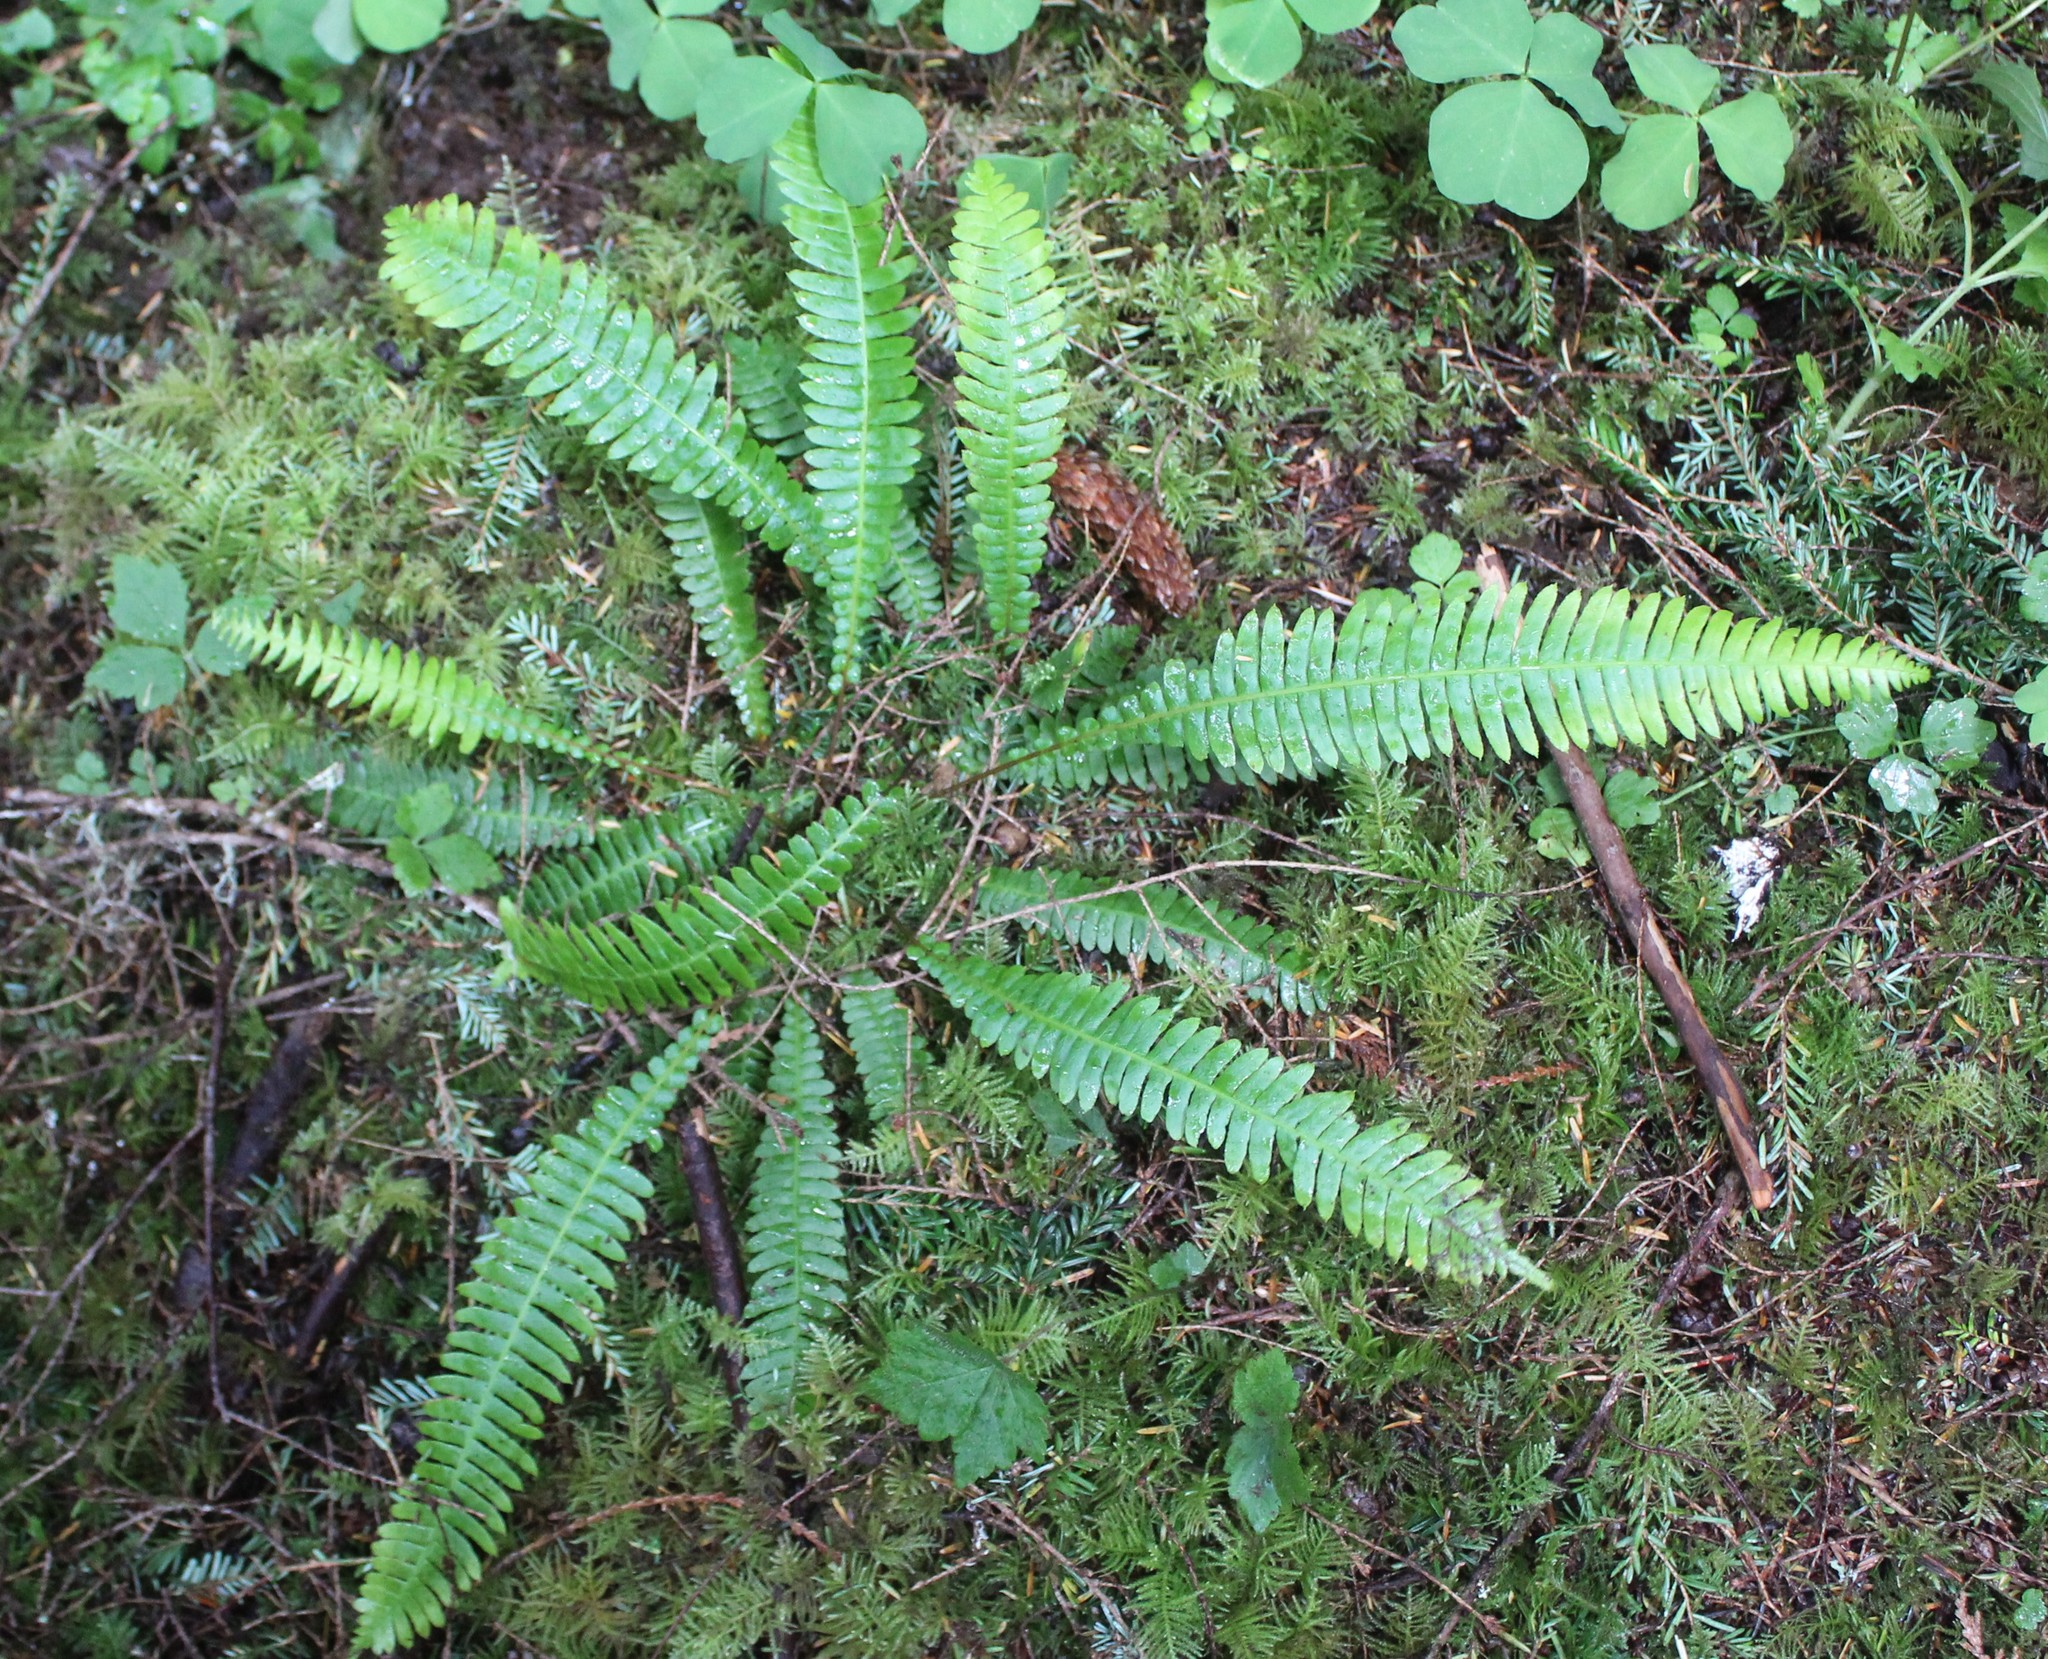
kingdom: Plantae
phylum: Tracheophyta
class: Polypodiopsida
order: Polypodiales
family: Blechnaceae
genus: Struthiopteris
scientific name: Struthiopteris spicant
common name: Deer fern
